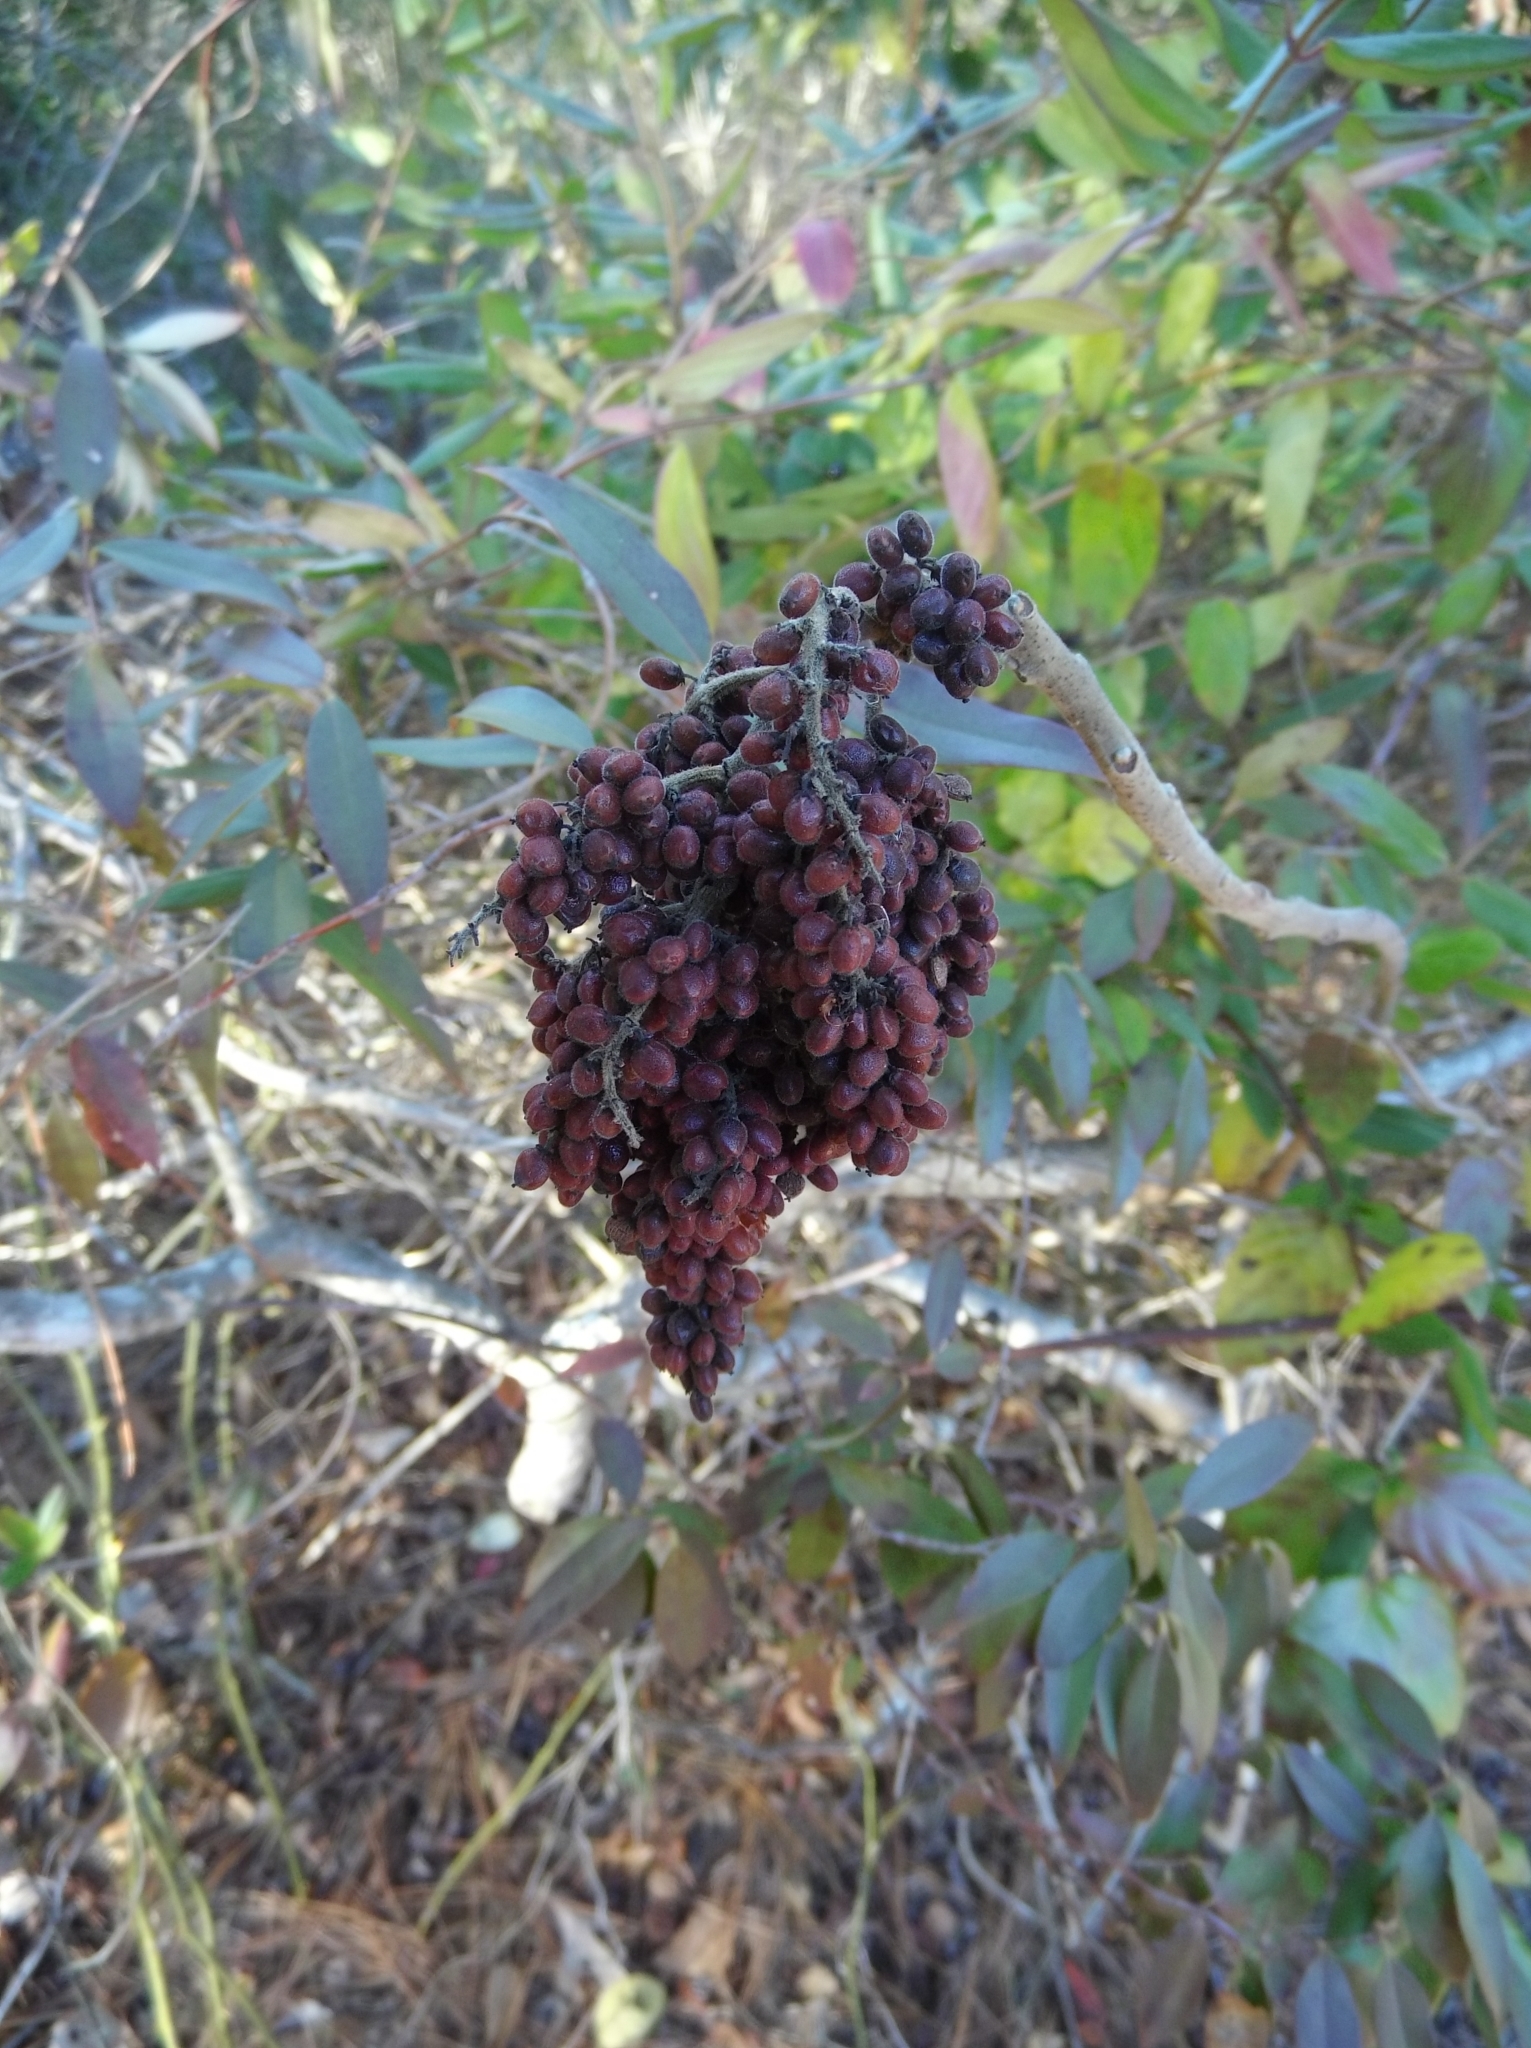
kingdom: Plantae
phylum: Tracheophyta
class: Magnoliopsida
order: Sapindales
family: Anacardiaceae
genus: Rhus
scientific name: Rhus copallina
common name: Shining sumac
